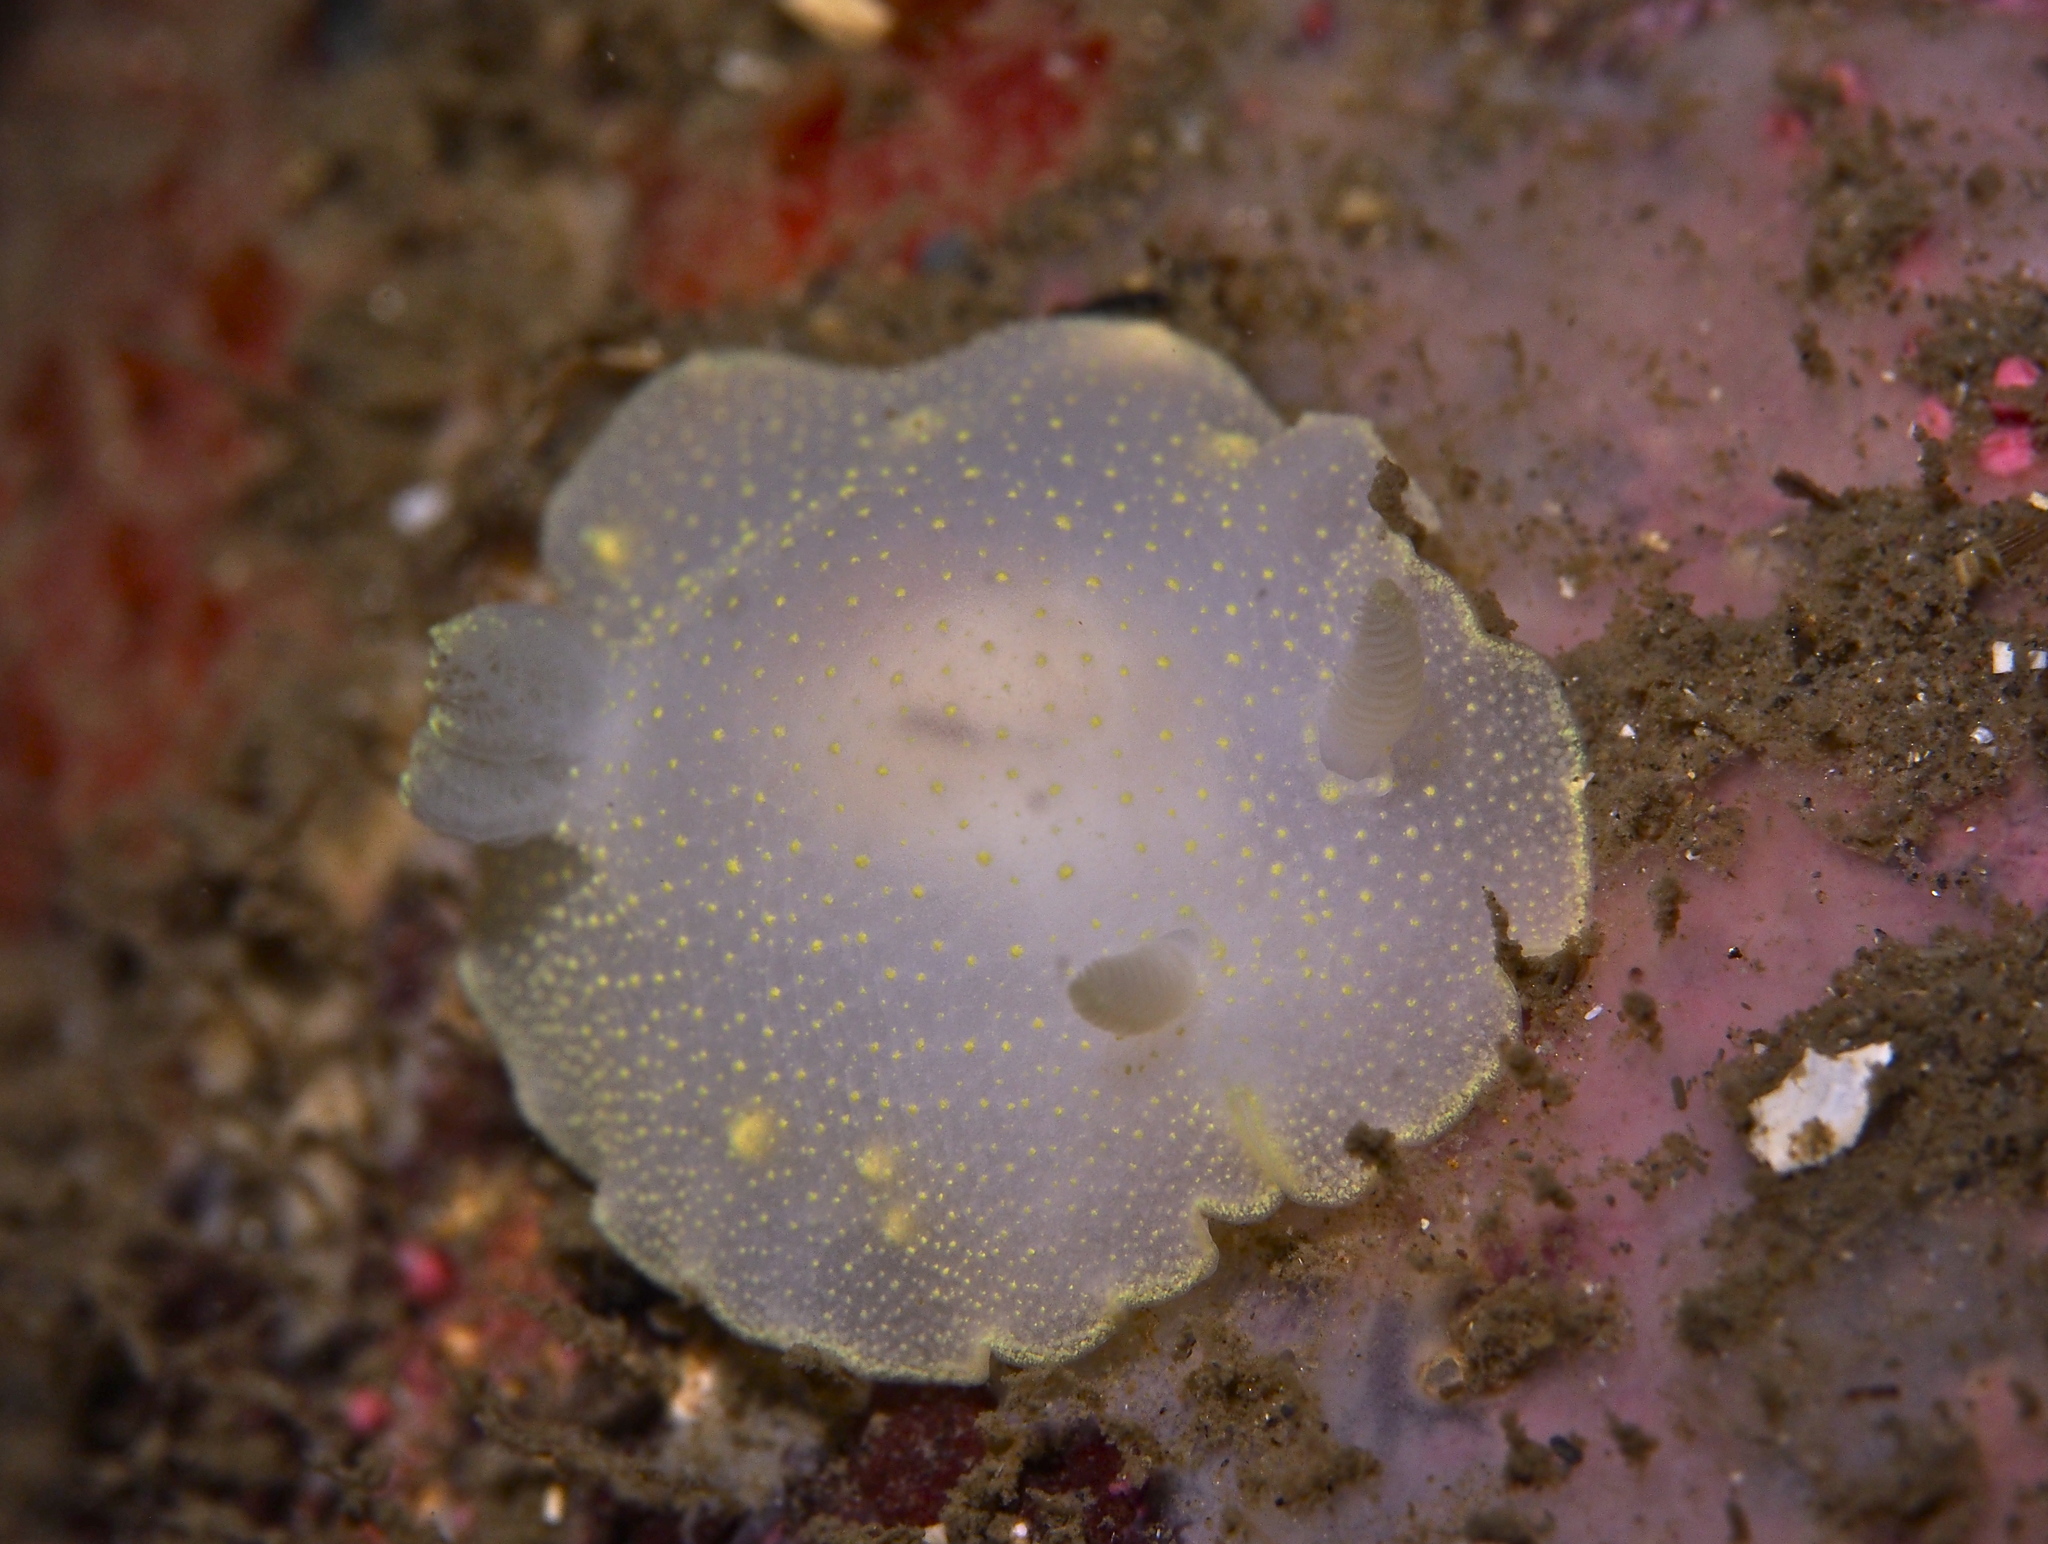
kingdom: Animalia
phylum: Mollusca
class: Gastropoda
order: Nudibranchia
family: Cadlinidae
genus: Cadlina
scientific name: Cadlina laevis
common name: White atlantic cadlina
